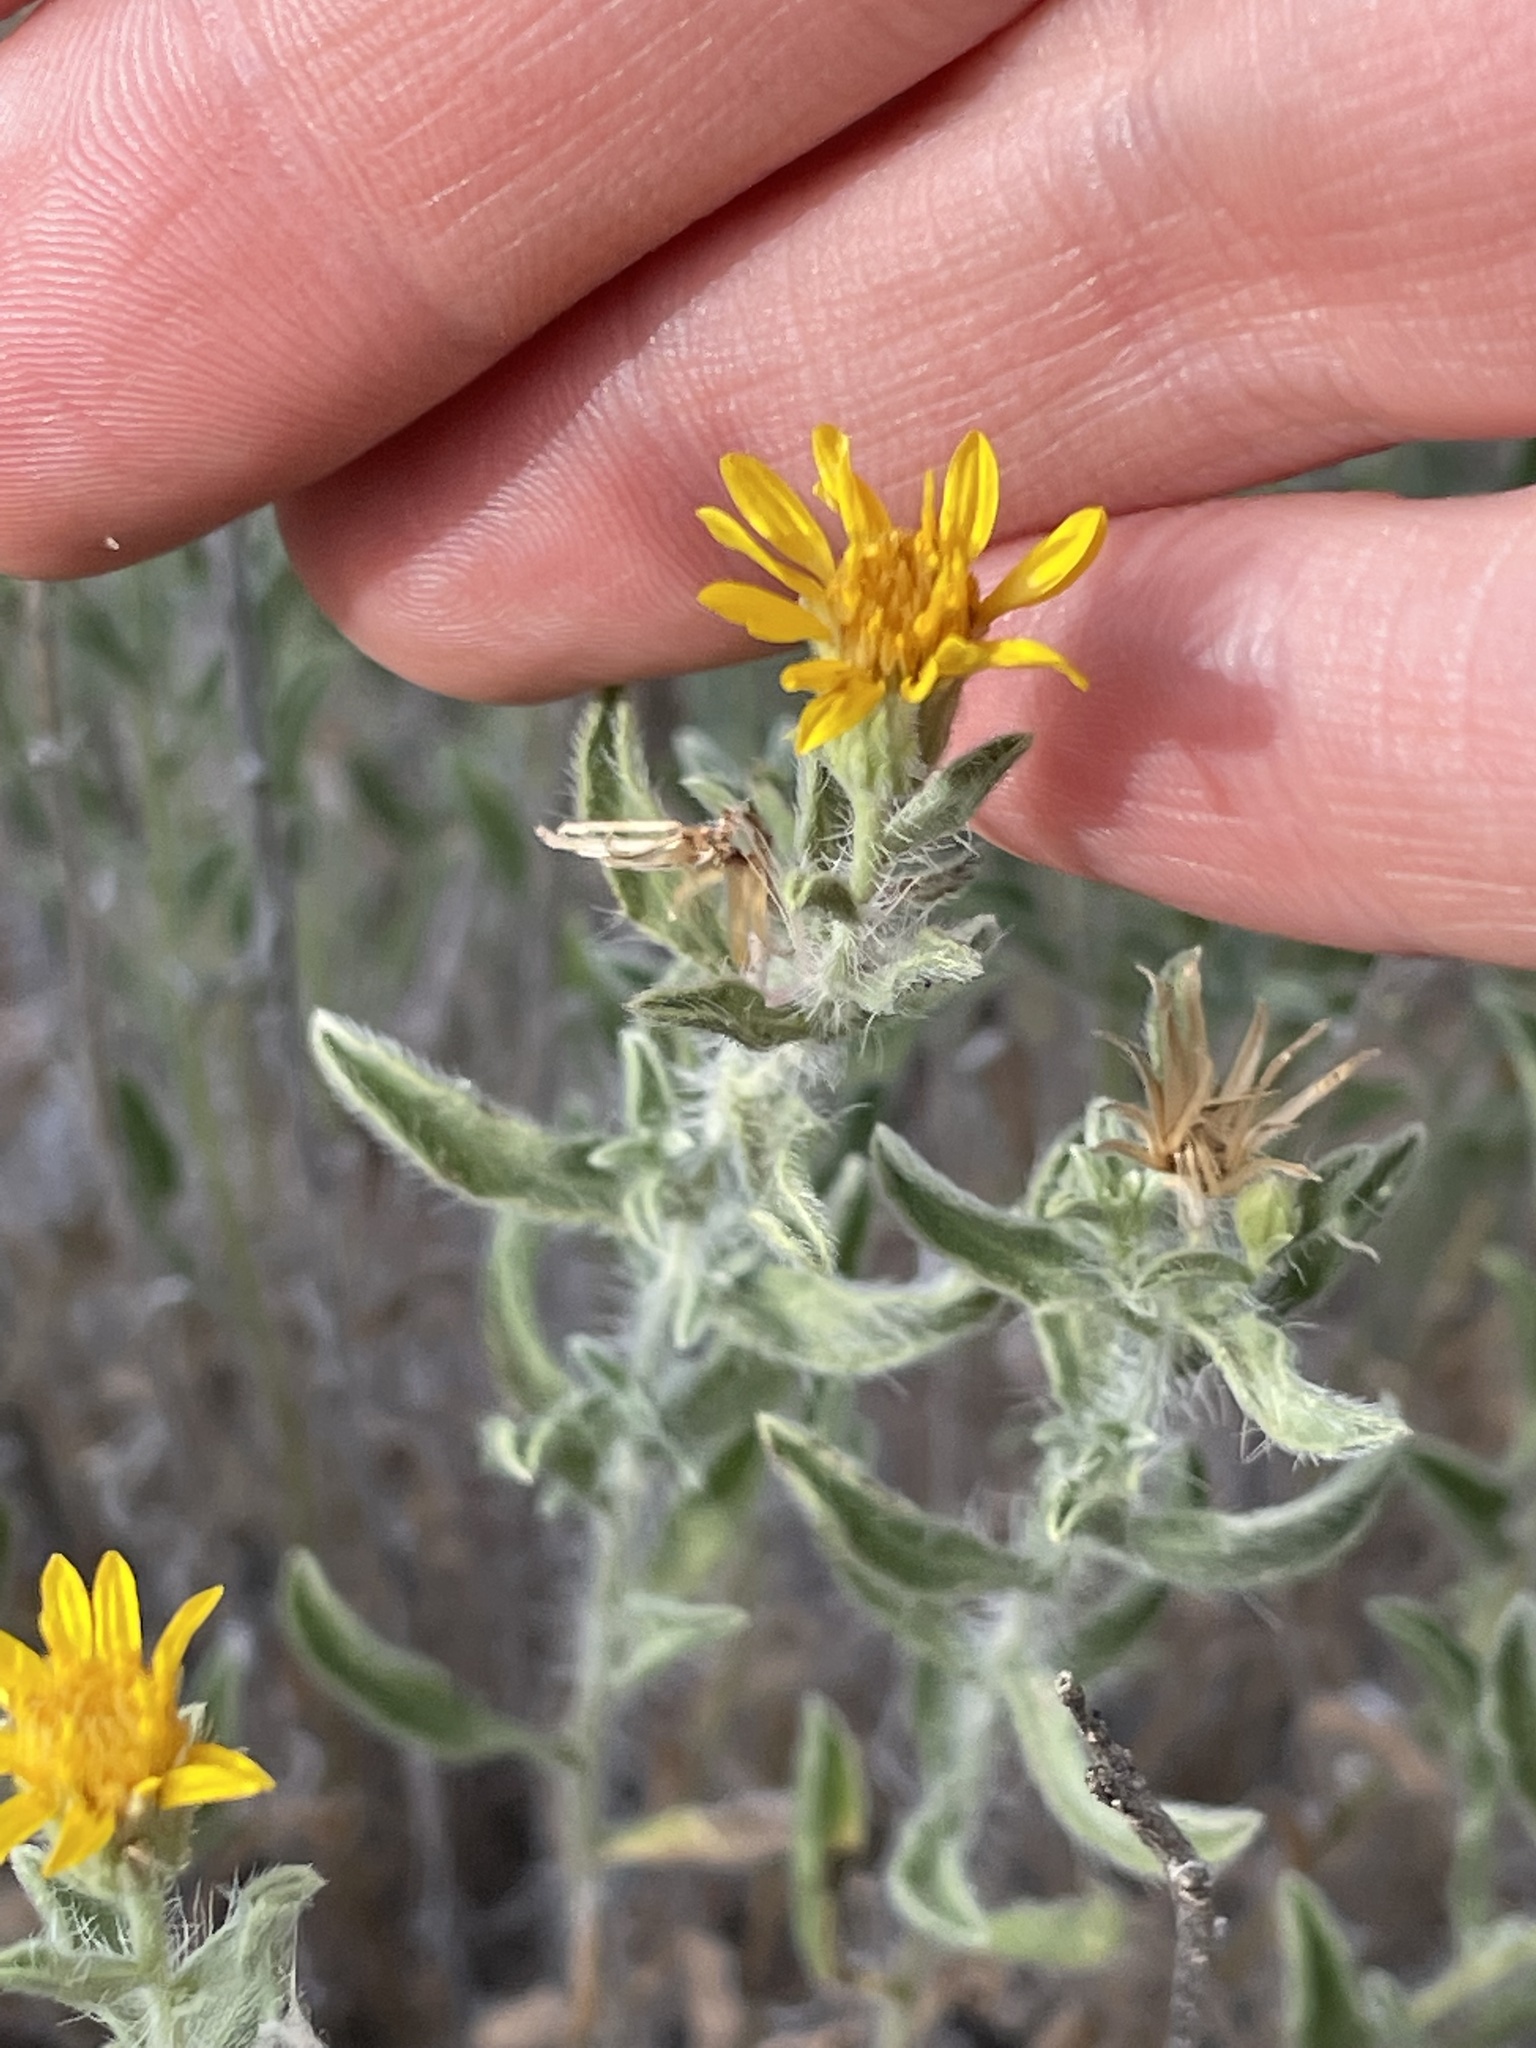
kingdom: Plantae
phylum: Tracheophyta
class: Magnoliopsida
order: Asterales
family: Asteraceae
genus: Heterotheca
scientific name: Heterotheca hirsutissima
